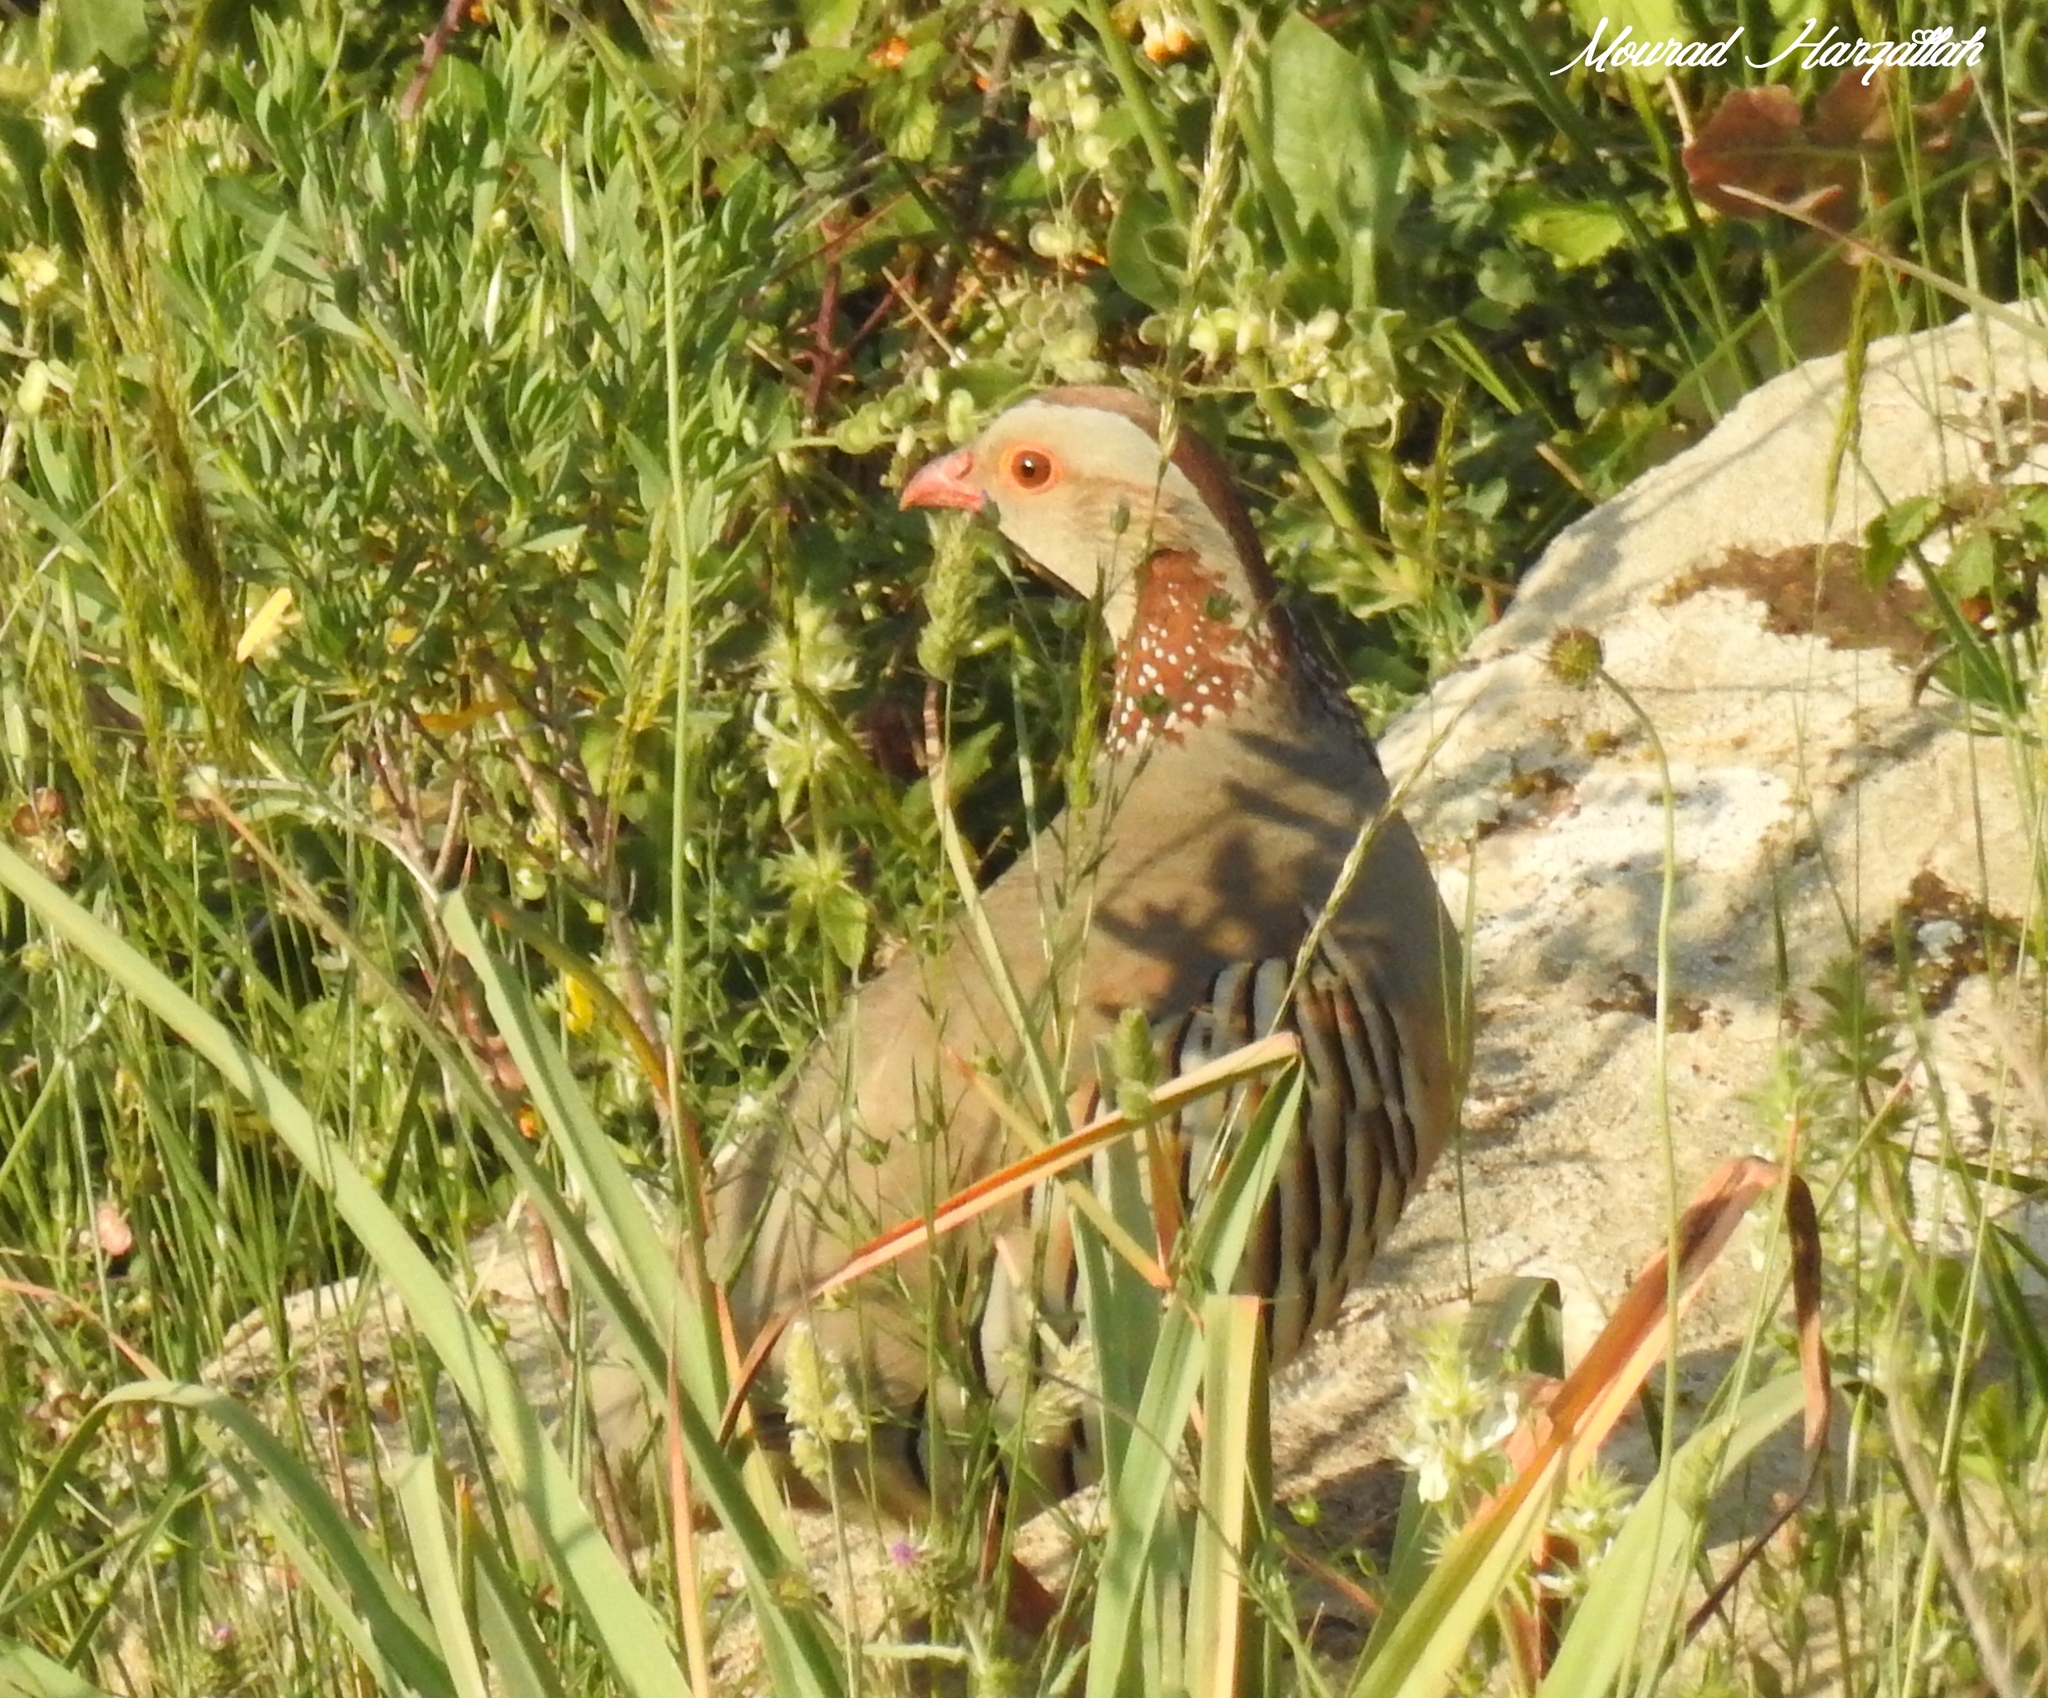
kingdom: Animalia
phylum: Chordata
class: Aves
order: Galliformes
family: Phasianidae
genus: Alectoris
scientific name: Alectoris barbara
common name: Barbary partridge
